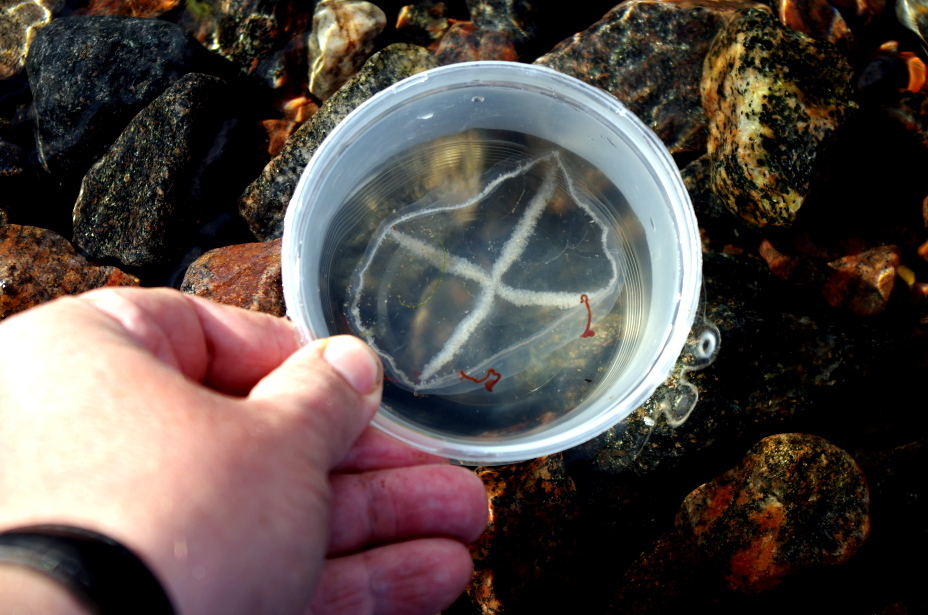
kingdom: Animalia
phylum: Cnidaria
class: Hydrozoa
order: Leptothecata
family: Laodiceidae
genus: Staurostoma
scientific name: Staurostoma mertensii
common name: Whitecross jellyfish
